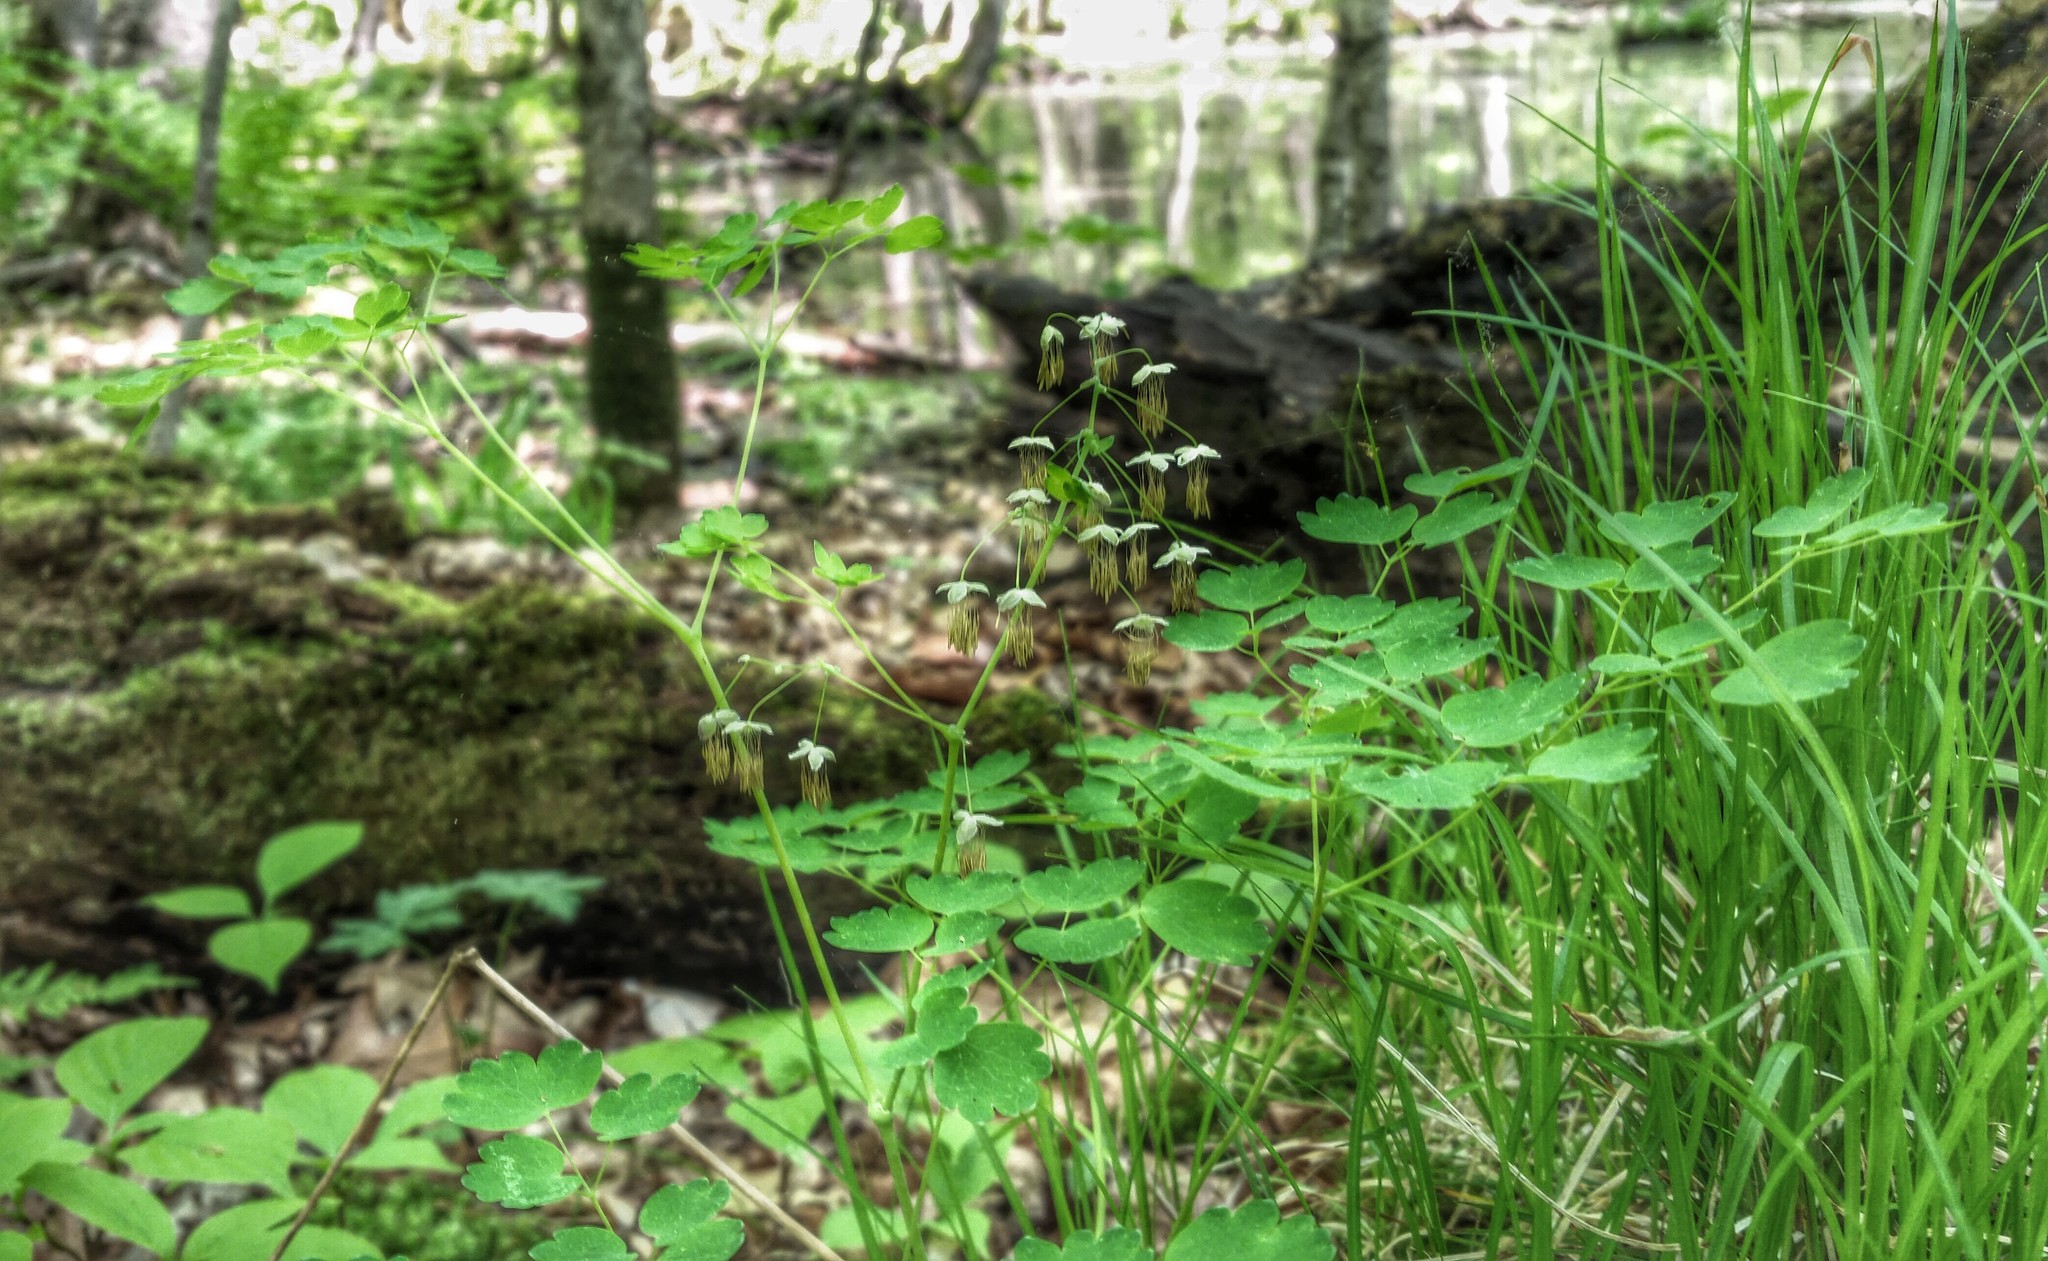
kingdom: Plantae
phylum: Tracheophyta
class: Magnoliopsida
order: Ranunculales
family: Ranunculaceae
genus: Thalictrum
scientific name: Thalictrum dioicum
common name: Early meadow-rue
